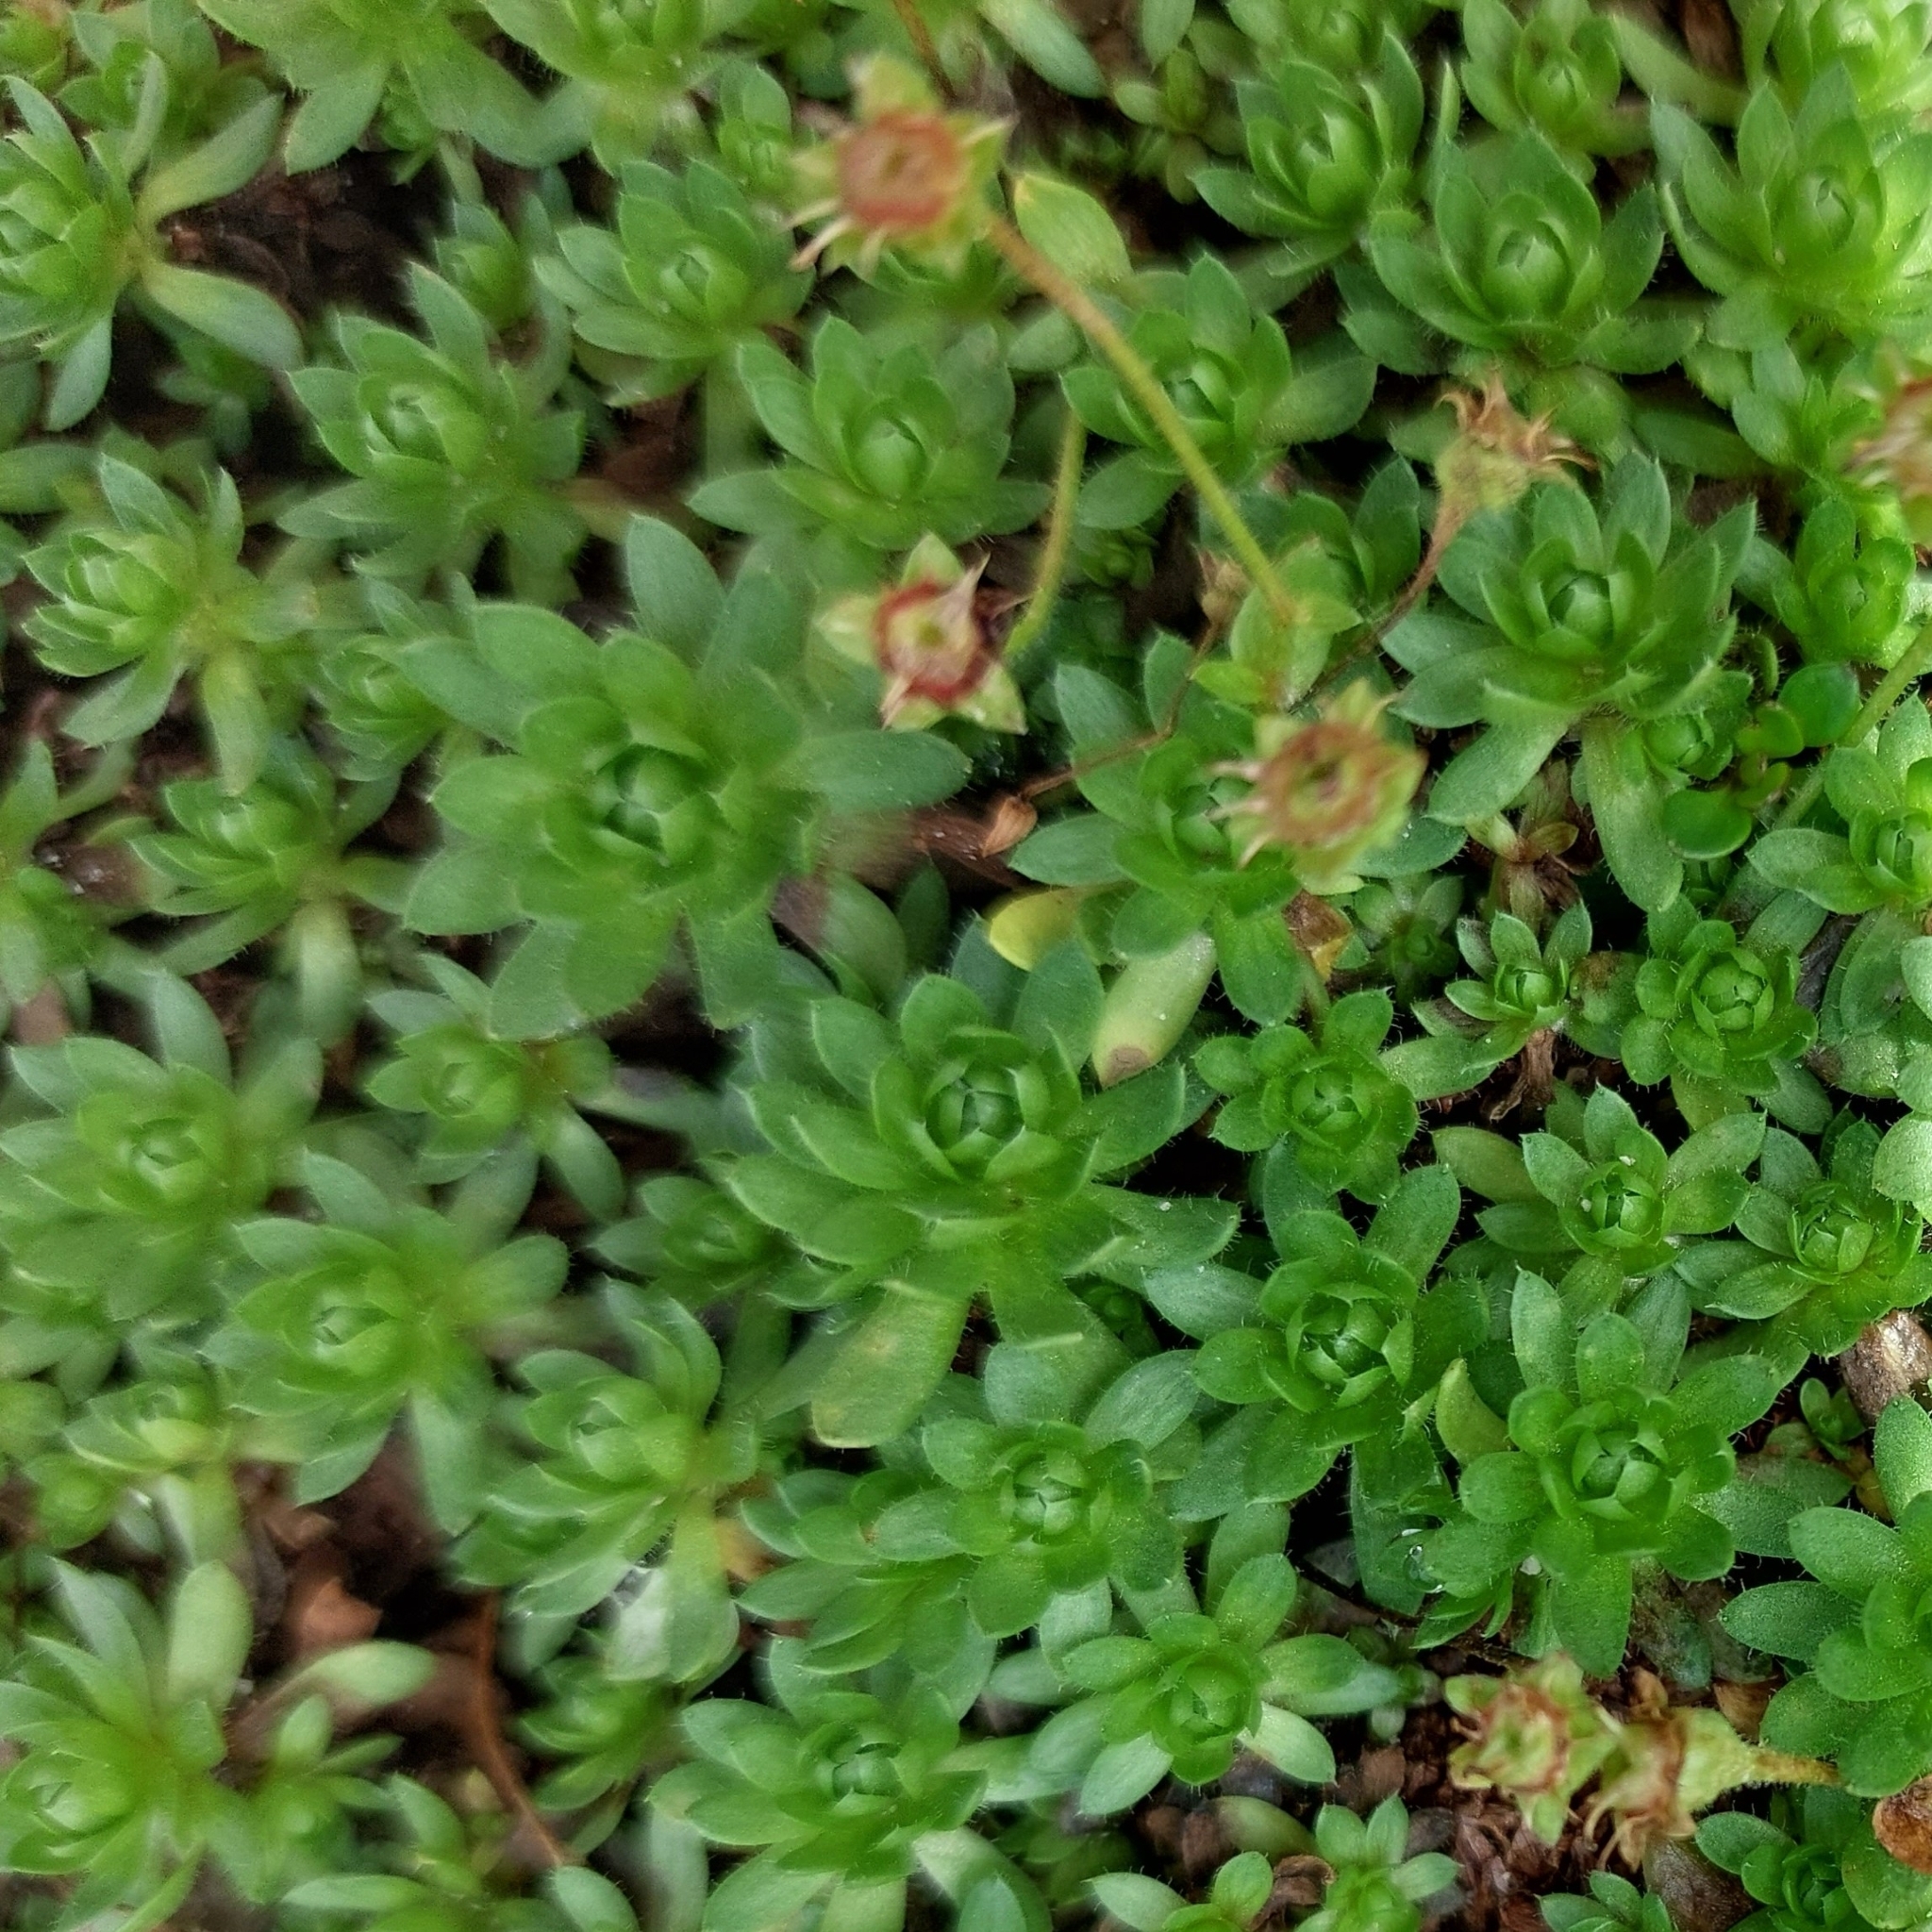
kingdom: Plantae
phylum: Tracheophyta
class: Magnoliopsida
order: Saxifragales
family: Saxifragaceae
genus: Saxifraga
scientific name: Saxifraga sedoides
